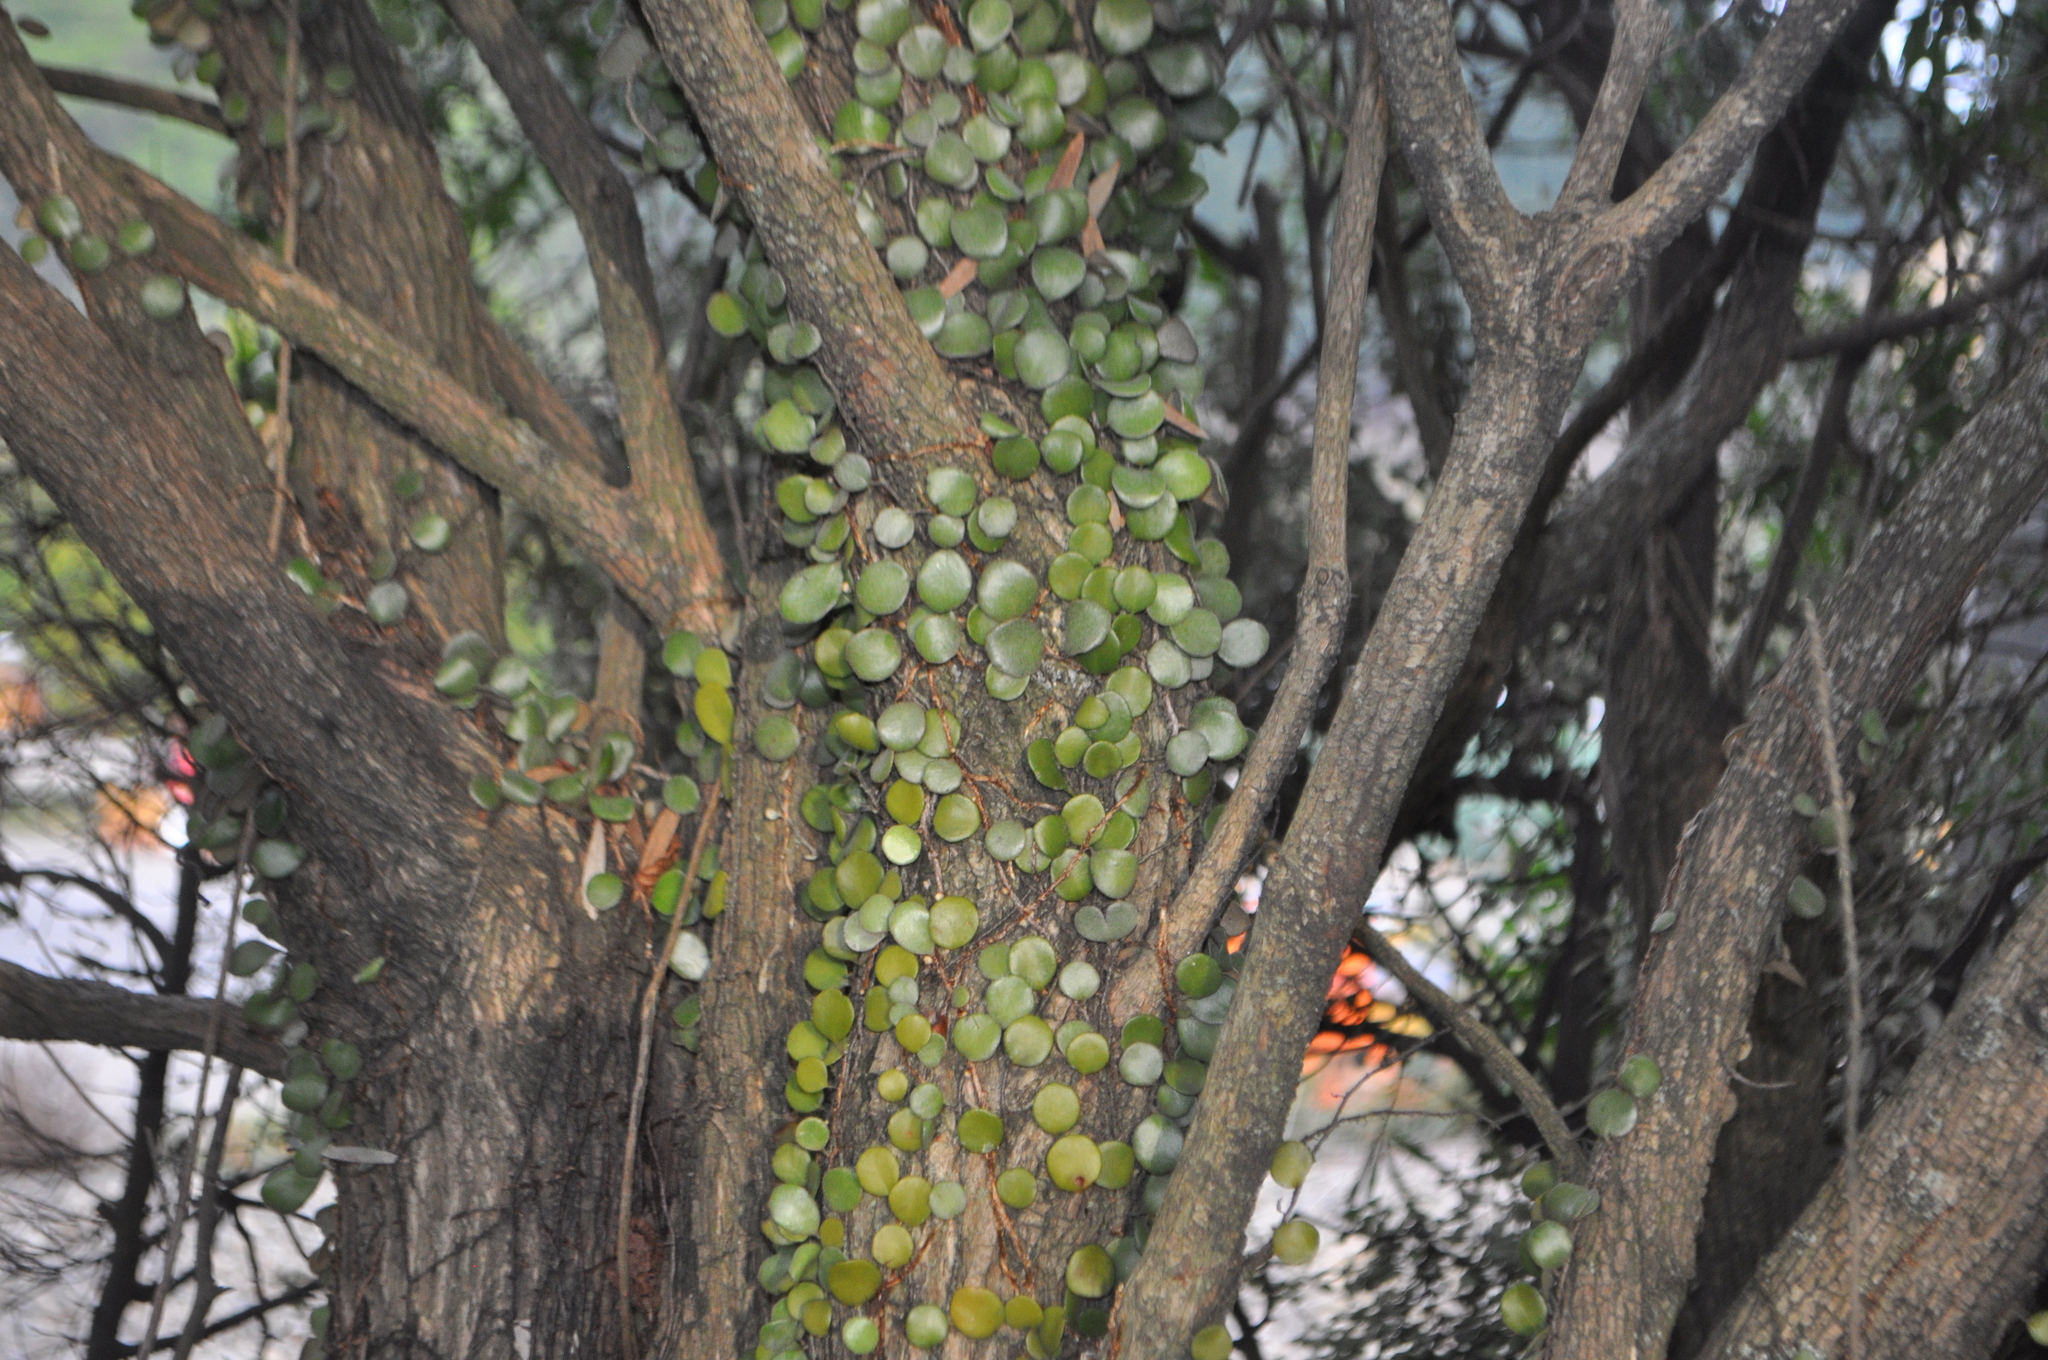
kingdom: Plantae
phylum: Tracheophyta
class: Polypodiopsida
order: Polypodiales
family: Polypodiaceae
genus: Pyrrosia
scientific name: Pyrrosia eleagnifolia
